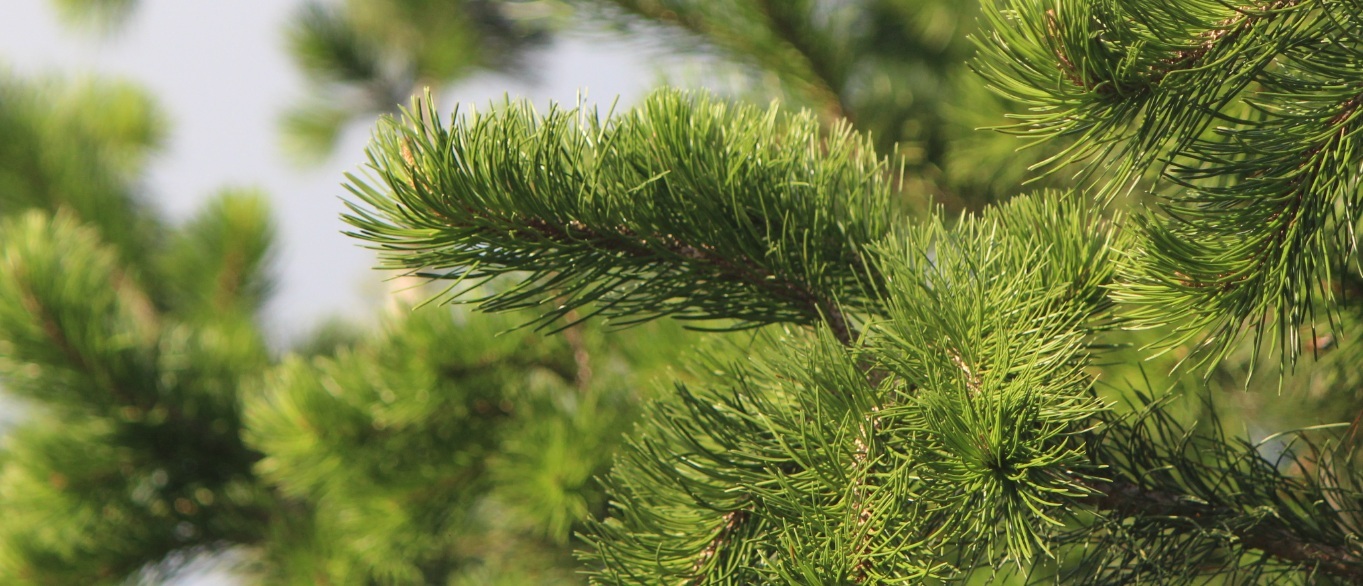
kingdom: Plantae
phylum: Tracheophyta
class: Pinopsida
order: Pinales
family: Pinaceae
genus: Pinus
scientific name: Pinus cembroides
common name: Mexican nut pine
